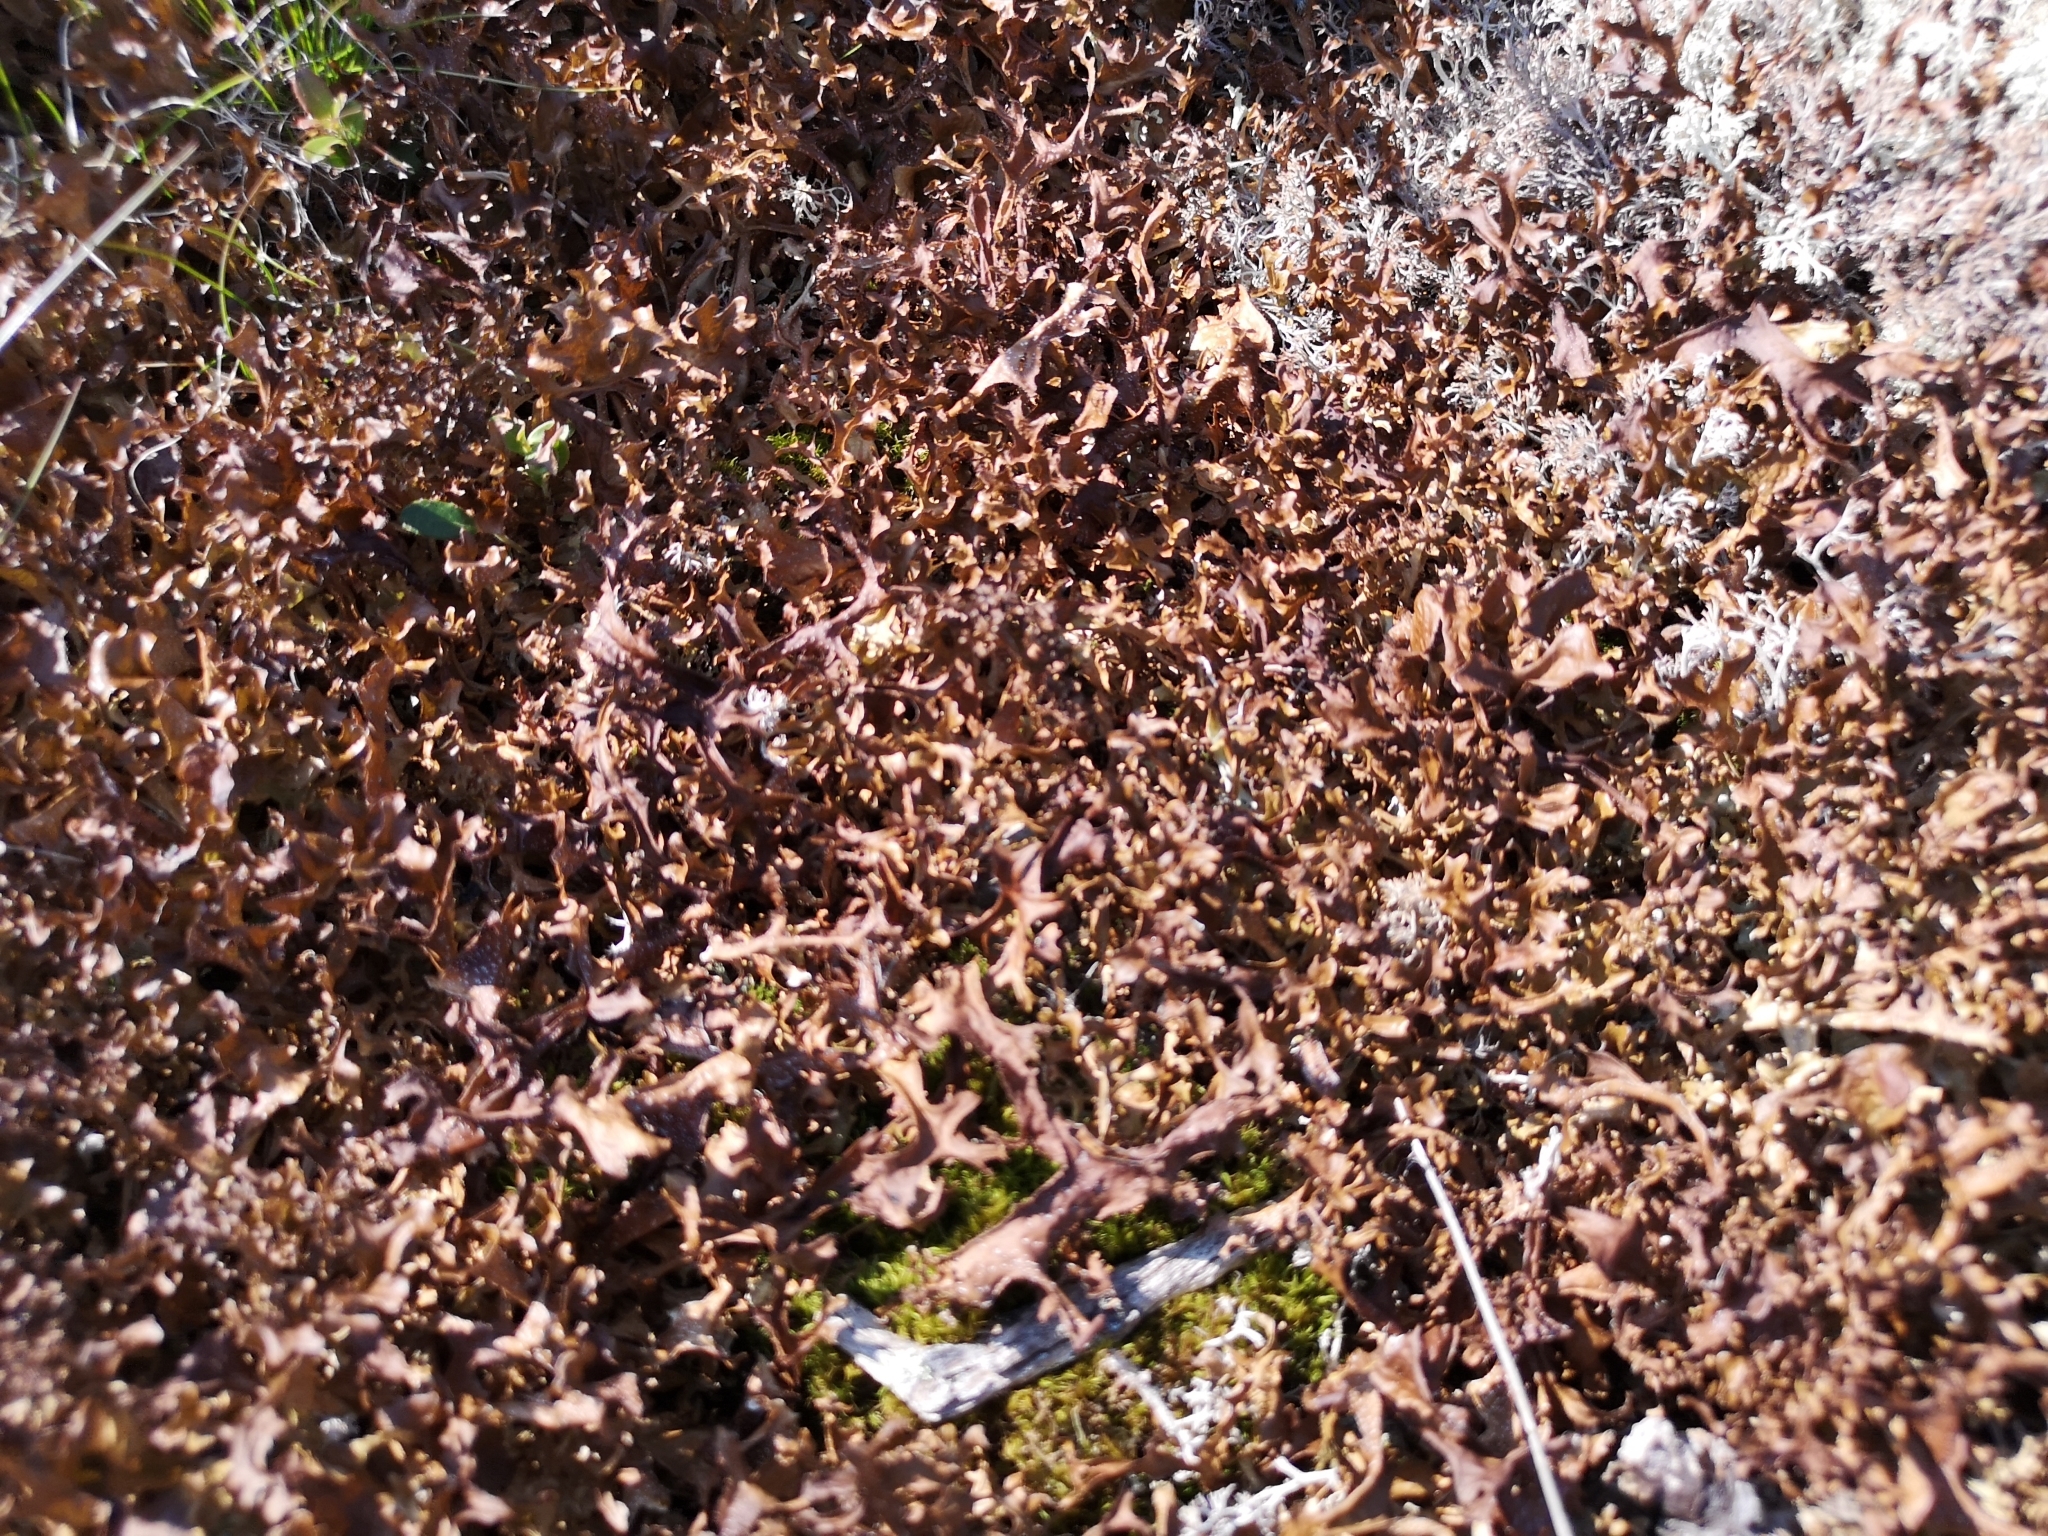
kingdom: Fungi
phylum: Ascomycota
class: Lecanoromycetes
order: Lecanorales
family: Parmeliaceae
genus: Cetraria
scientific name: Cetraria islandica
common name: Iceland lichen
